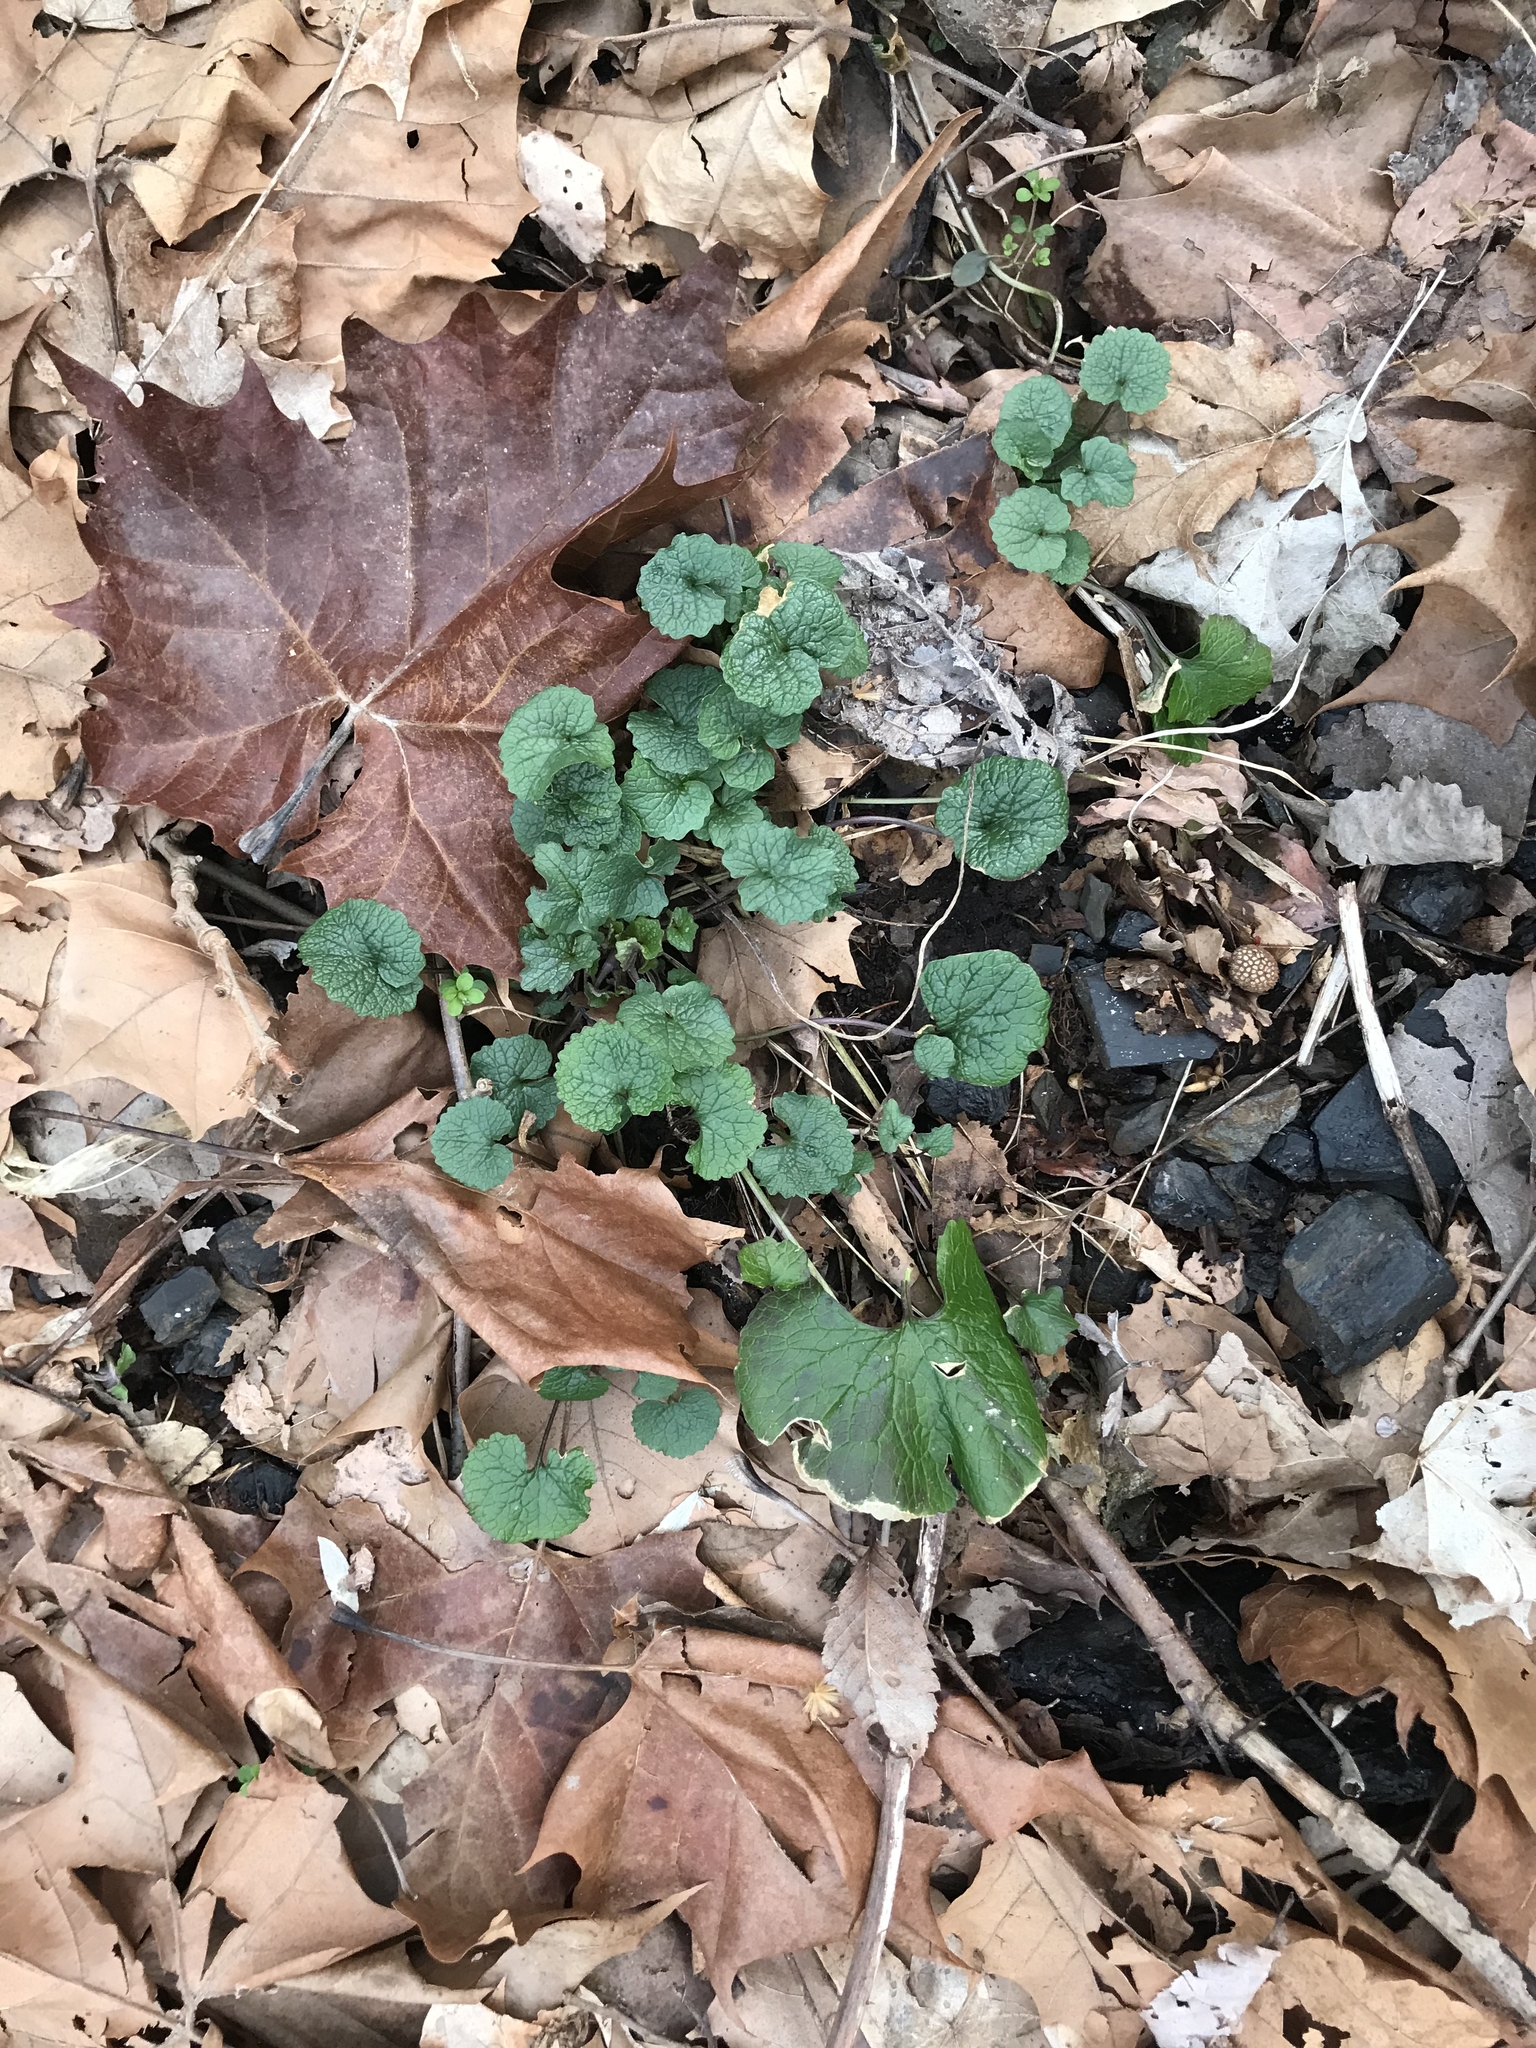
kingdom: Plantae
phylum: Tracheophyta
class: Magnoliopsida
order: Brassicales
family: Brassicaceae
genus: Alliaria
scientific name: Alliaria petiolata
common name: Garlic mustard
